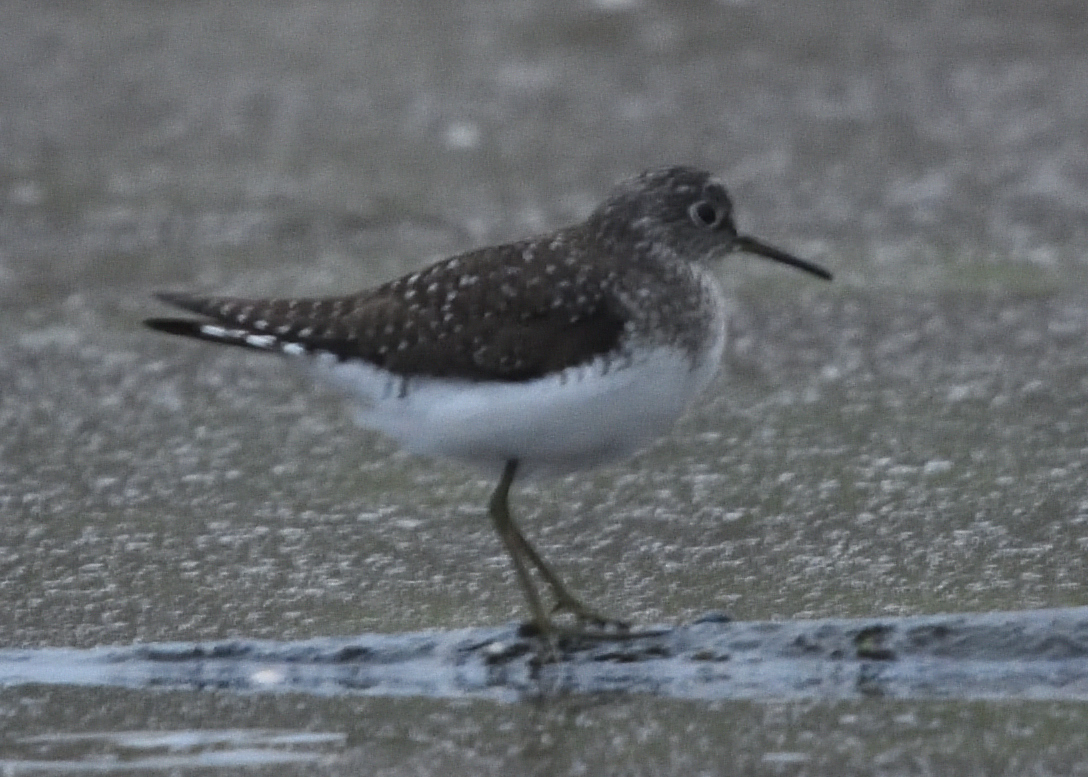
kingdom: Animalia
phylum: Chordata
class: Aves
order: Charadriiformes
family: Scolopacidae
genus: Tringa
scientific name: Tringa solitaria
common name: Solitary sandpiper
